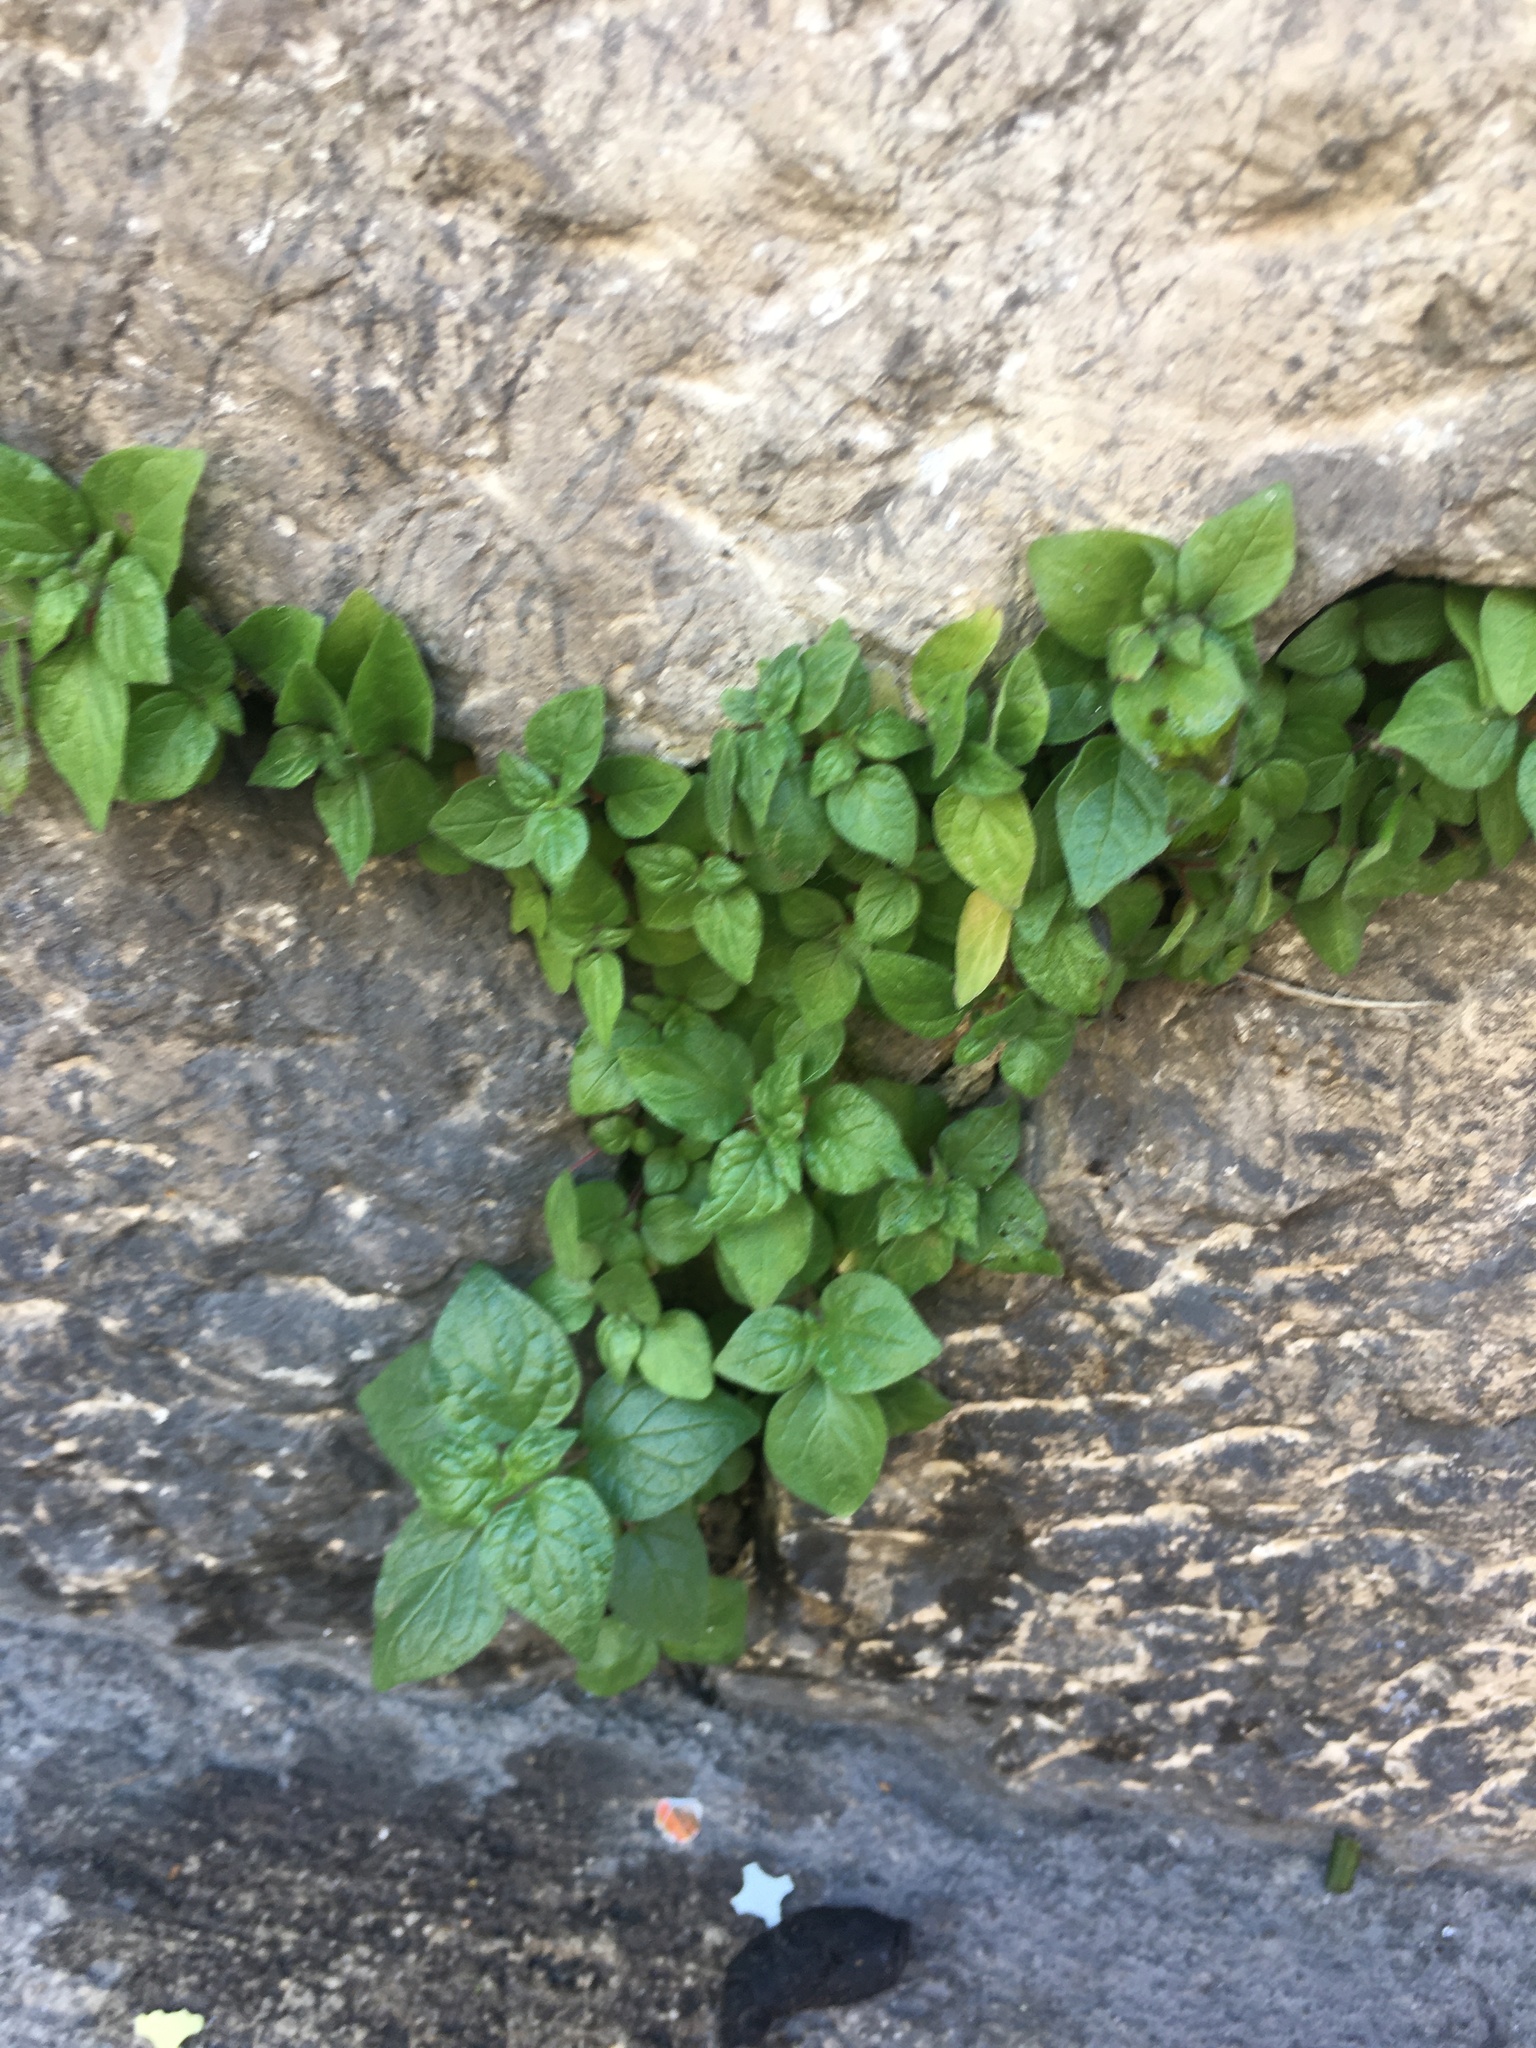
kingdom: Plantae
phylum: Tracheophyta
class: Magnoliopsida
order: Rosales
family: Urticaceae
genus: Parietaria
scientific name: Parietaria judaica
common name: Pellitory-of-the-wall
